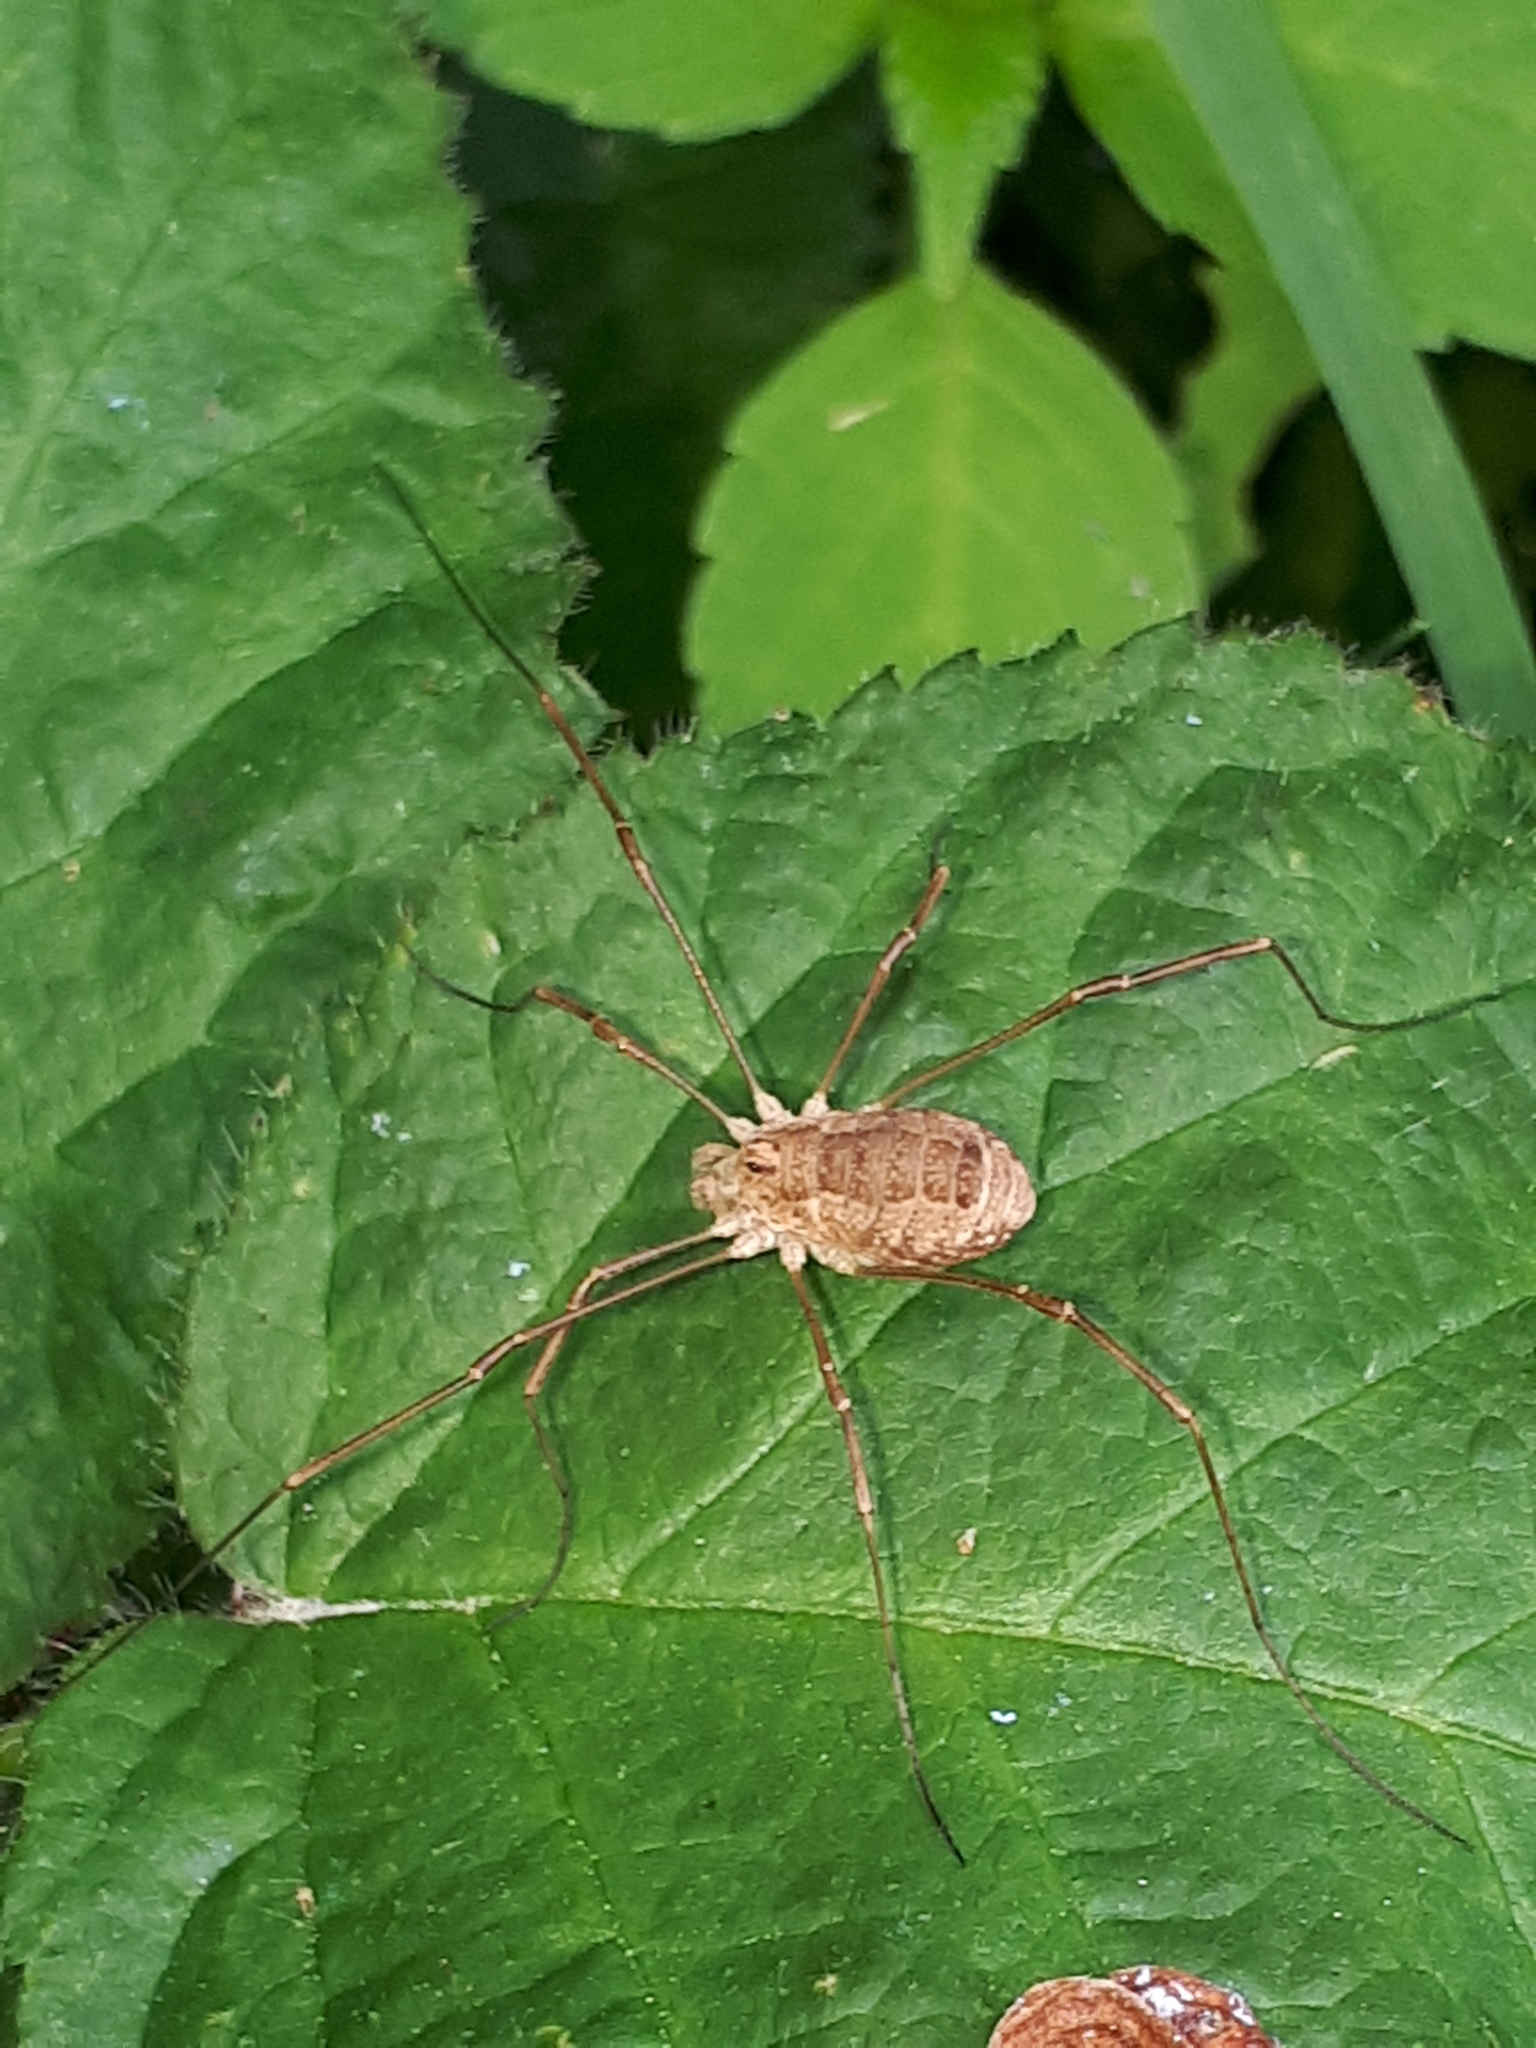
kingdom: Animalia
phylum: Arthropoda
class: Arachnida
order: Opiliones
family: Phalangiidae
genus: Rilaena
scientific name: Rilaena triangularis
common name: Spring harvestman
